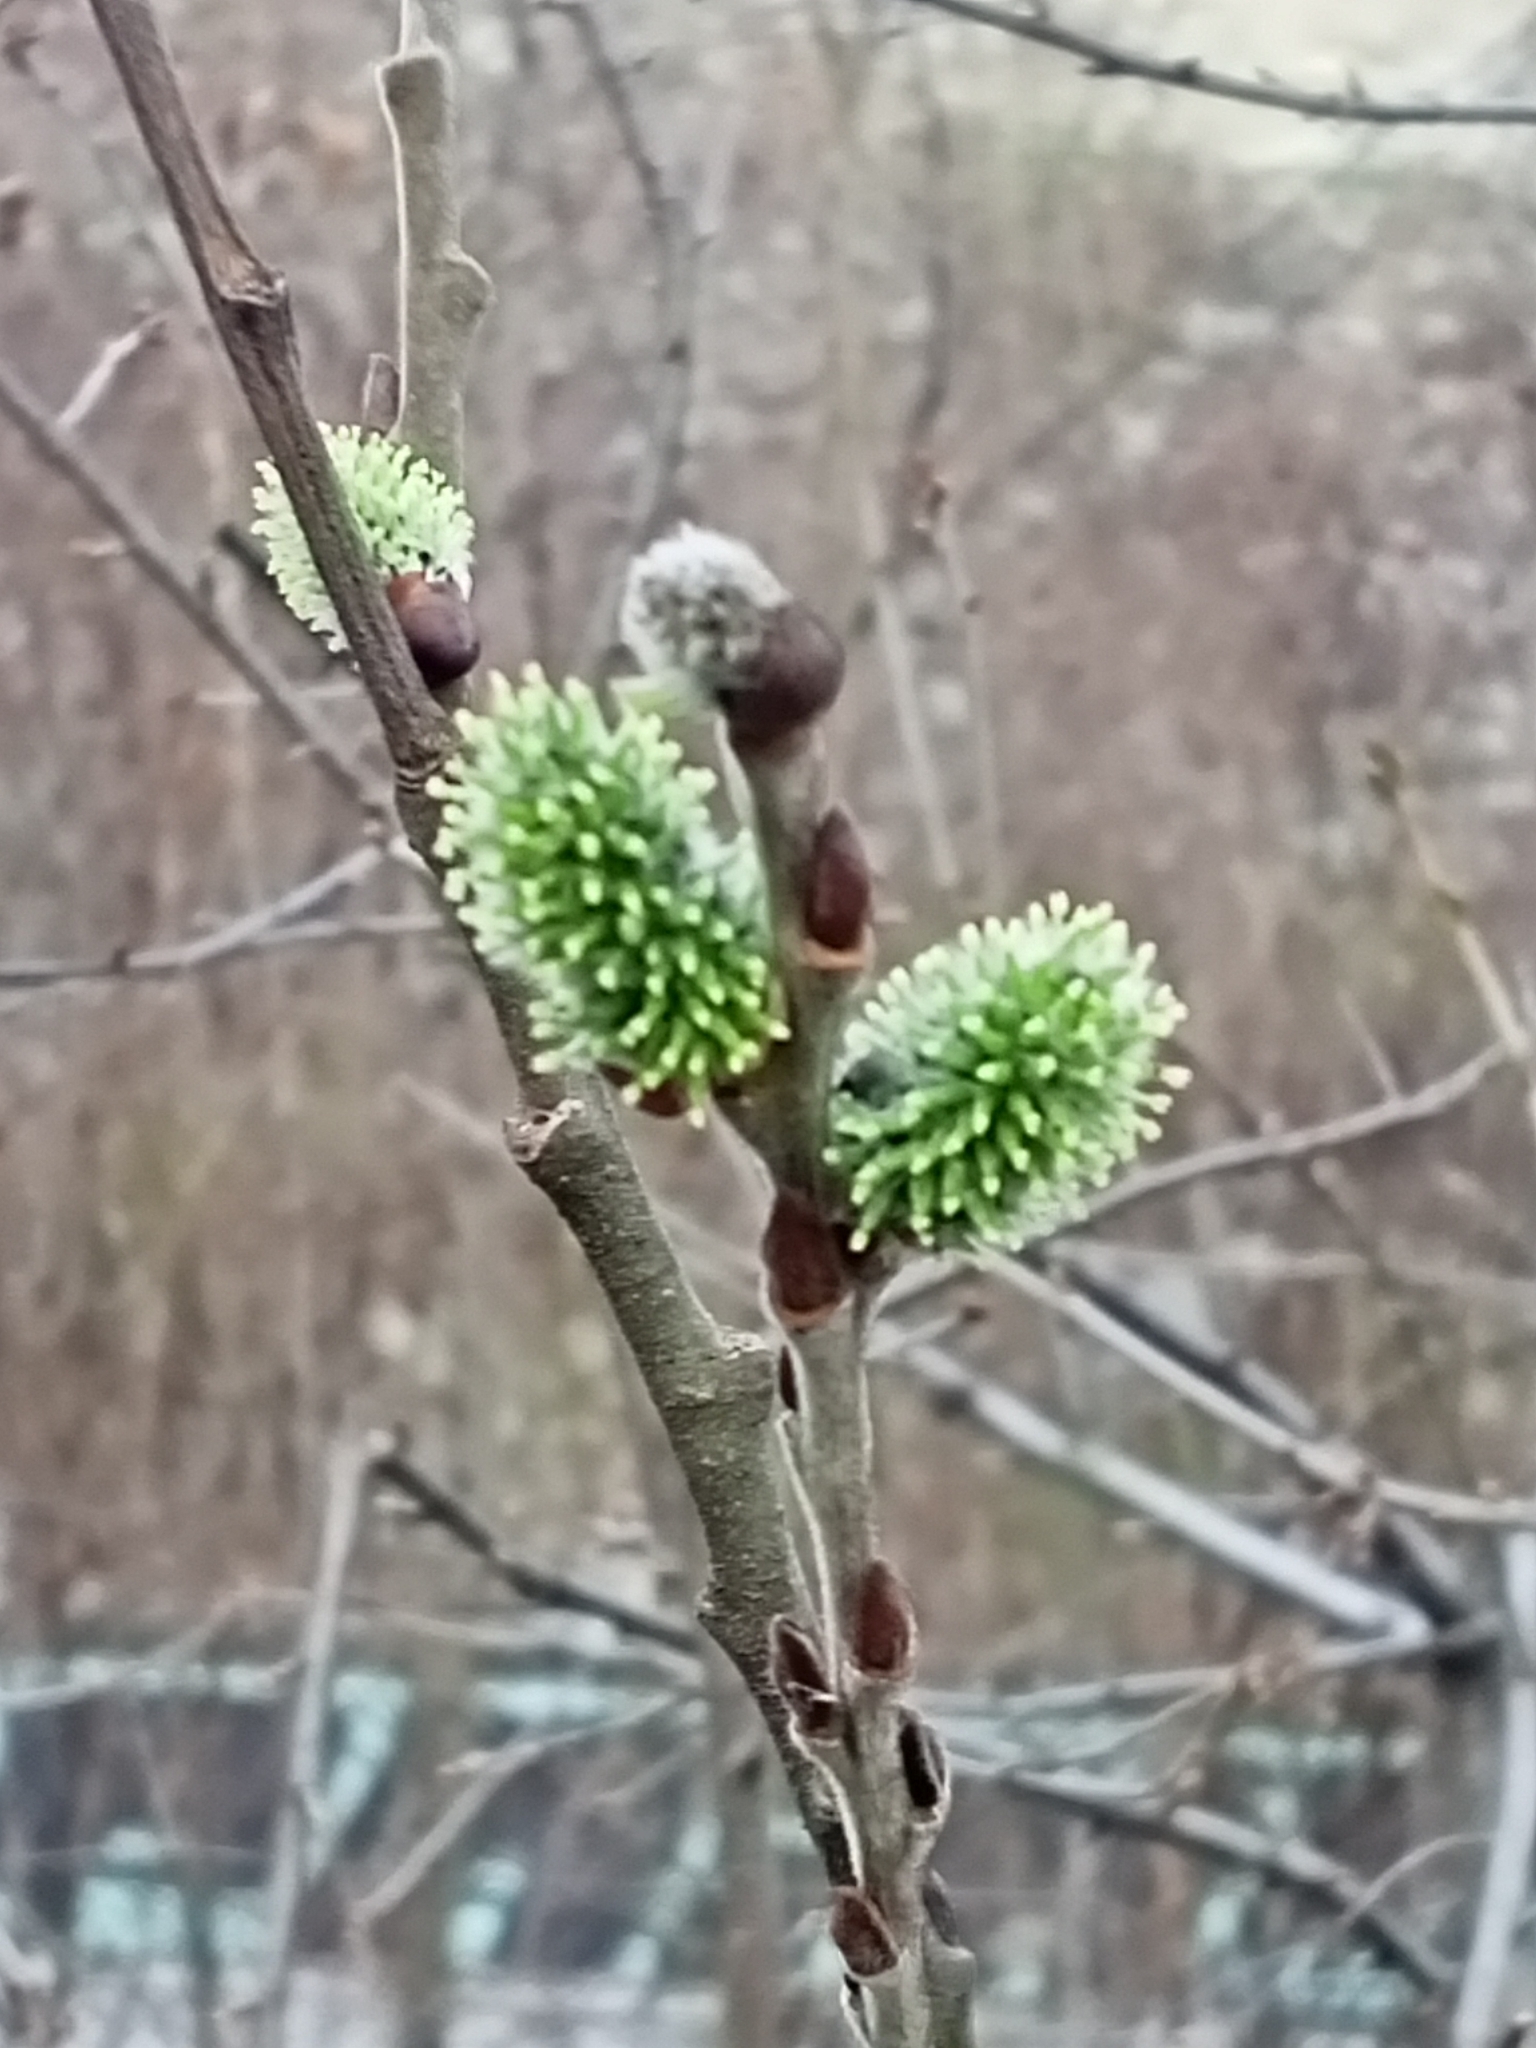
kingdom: Plantae
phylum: Tracheophyta
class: Magnoliopsida
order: Malpighiales
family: Salicaceae
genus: Salix
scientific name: Salix caprea
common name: Goat willow
